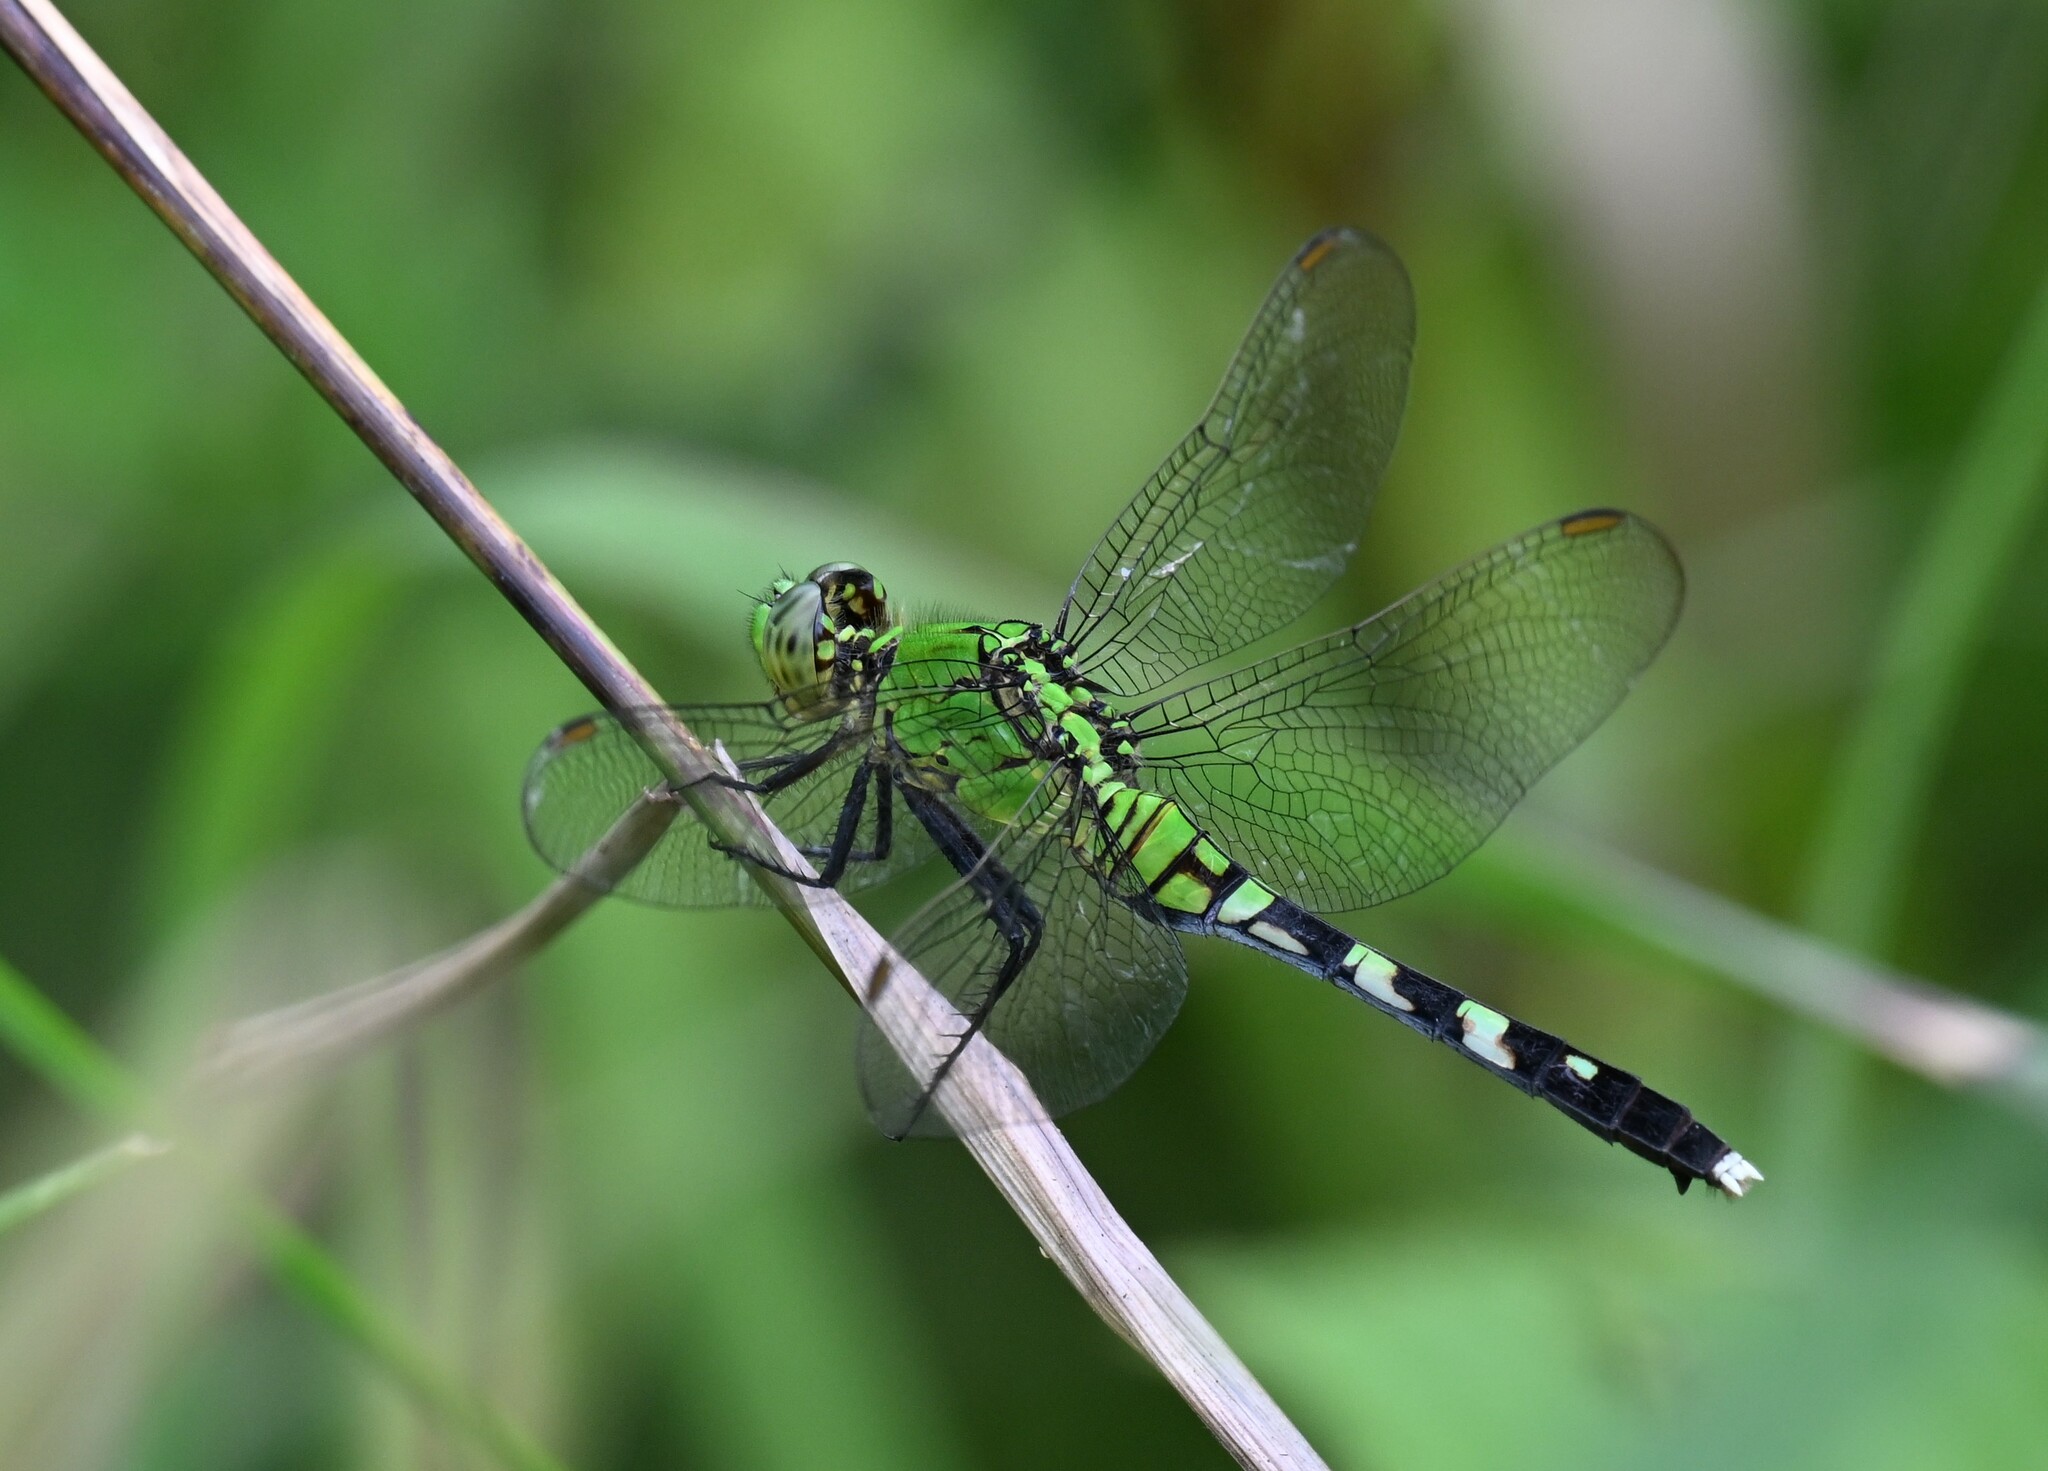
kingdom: Animalia
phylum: Arthropoda
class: Insecta
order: Odonata
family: Libellulidae
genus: Erythemis
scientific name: Erythemis simplicicollis
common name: Eastern pondhawk
